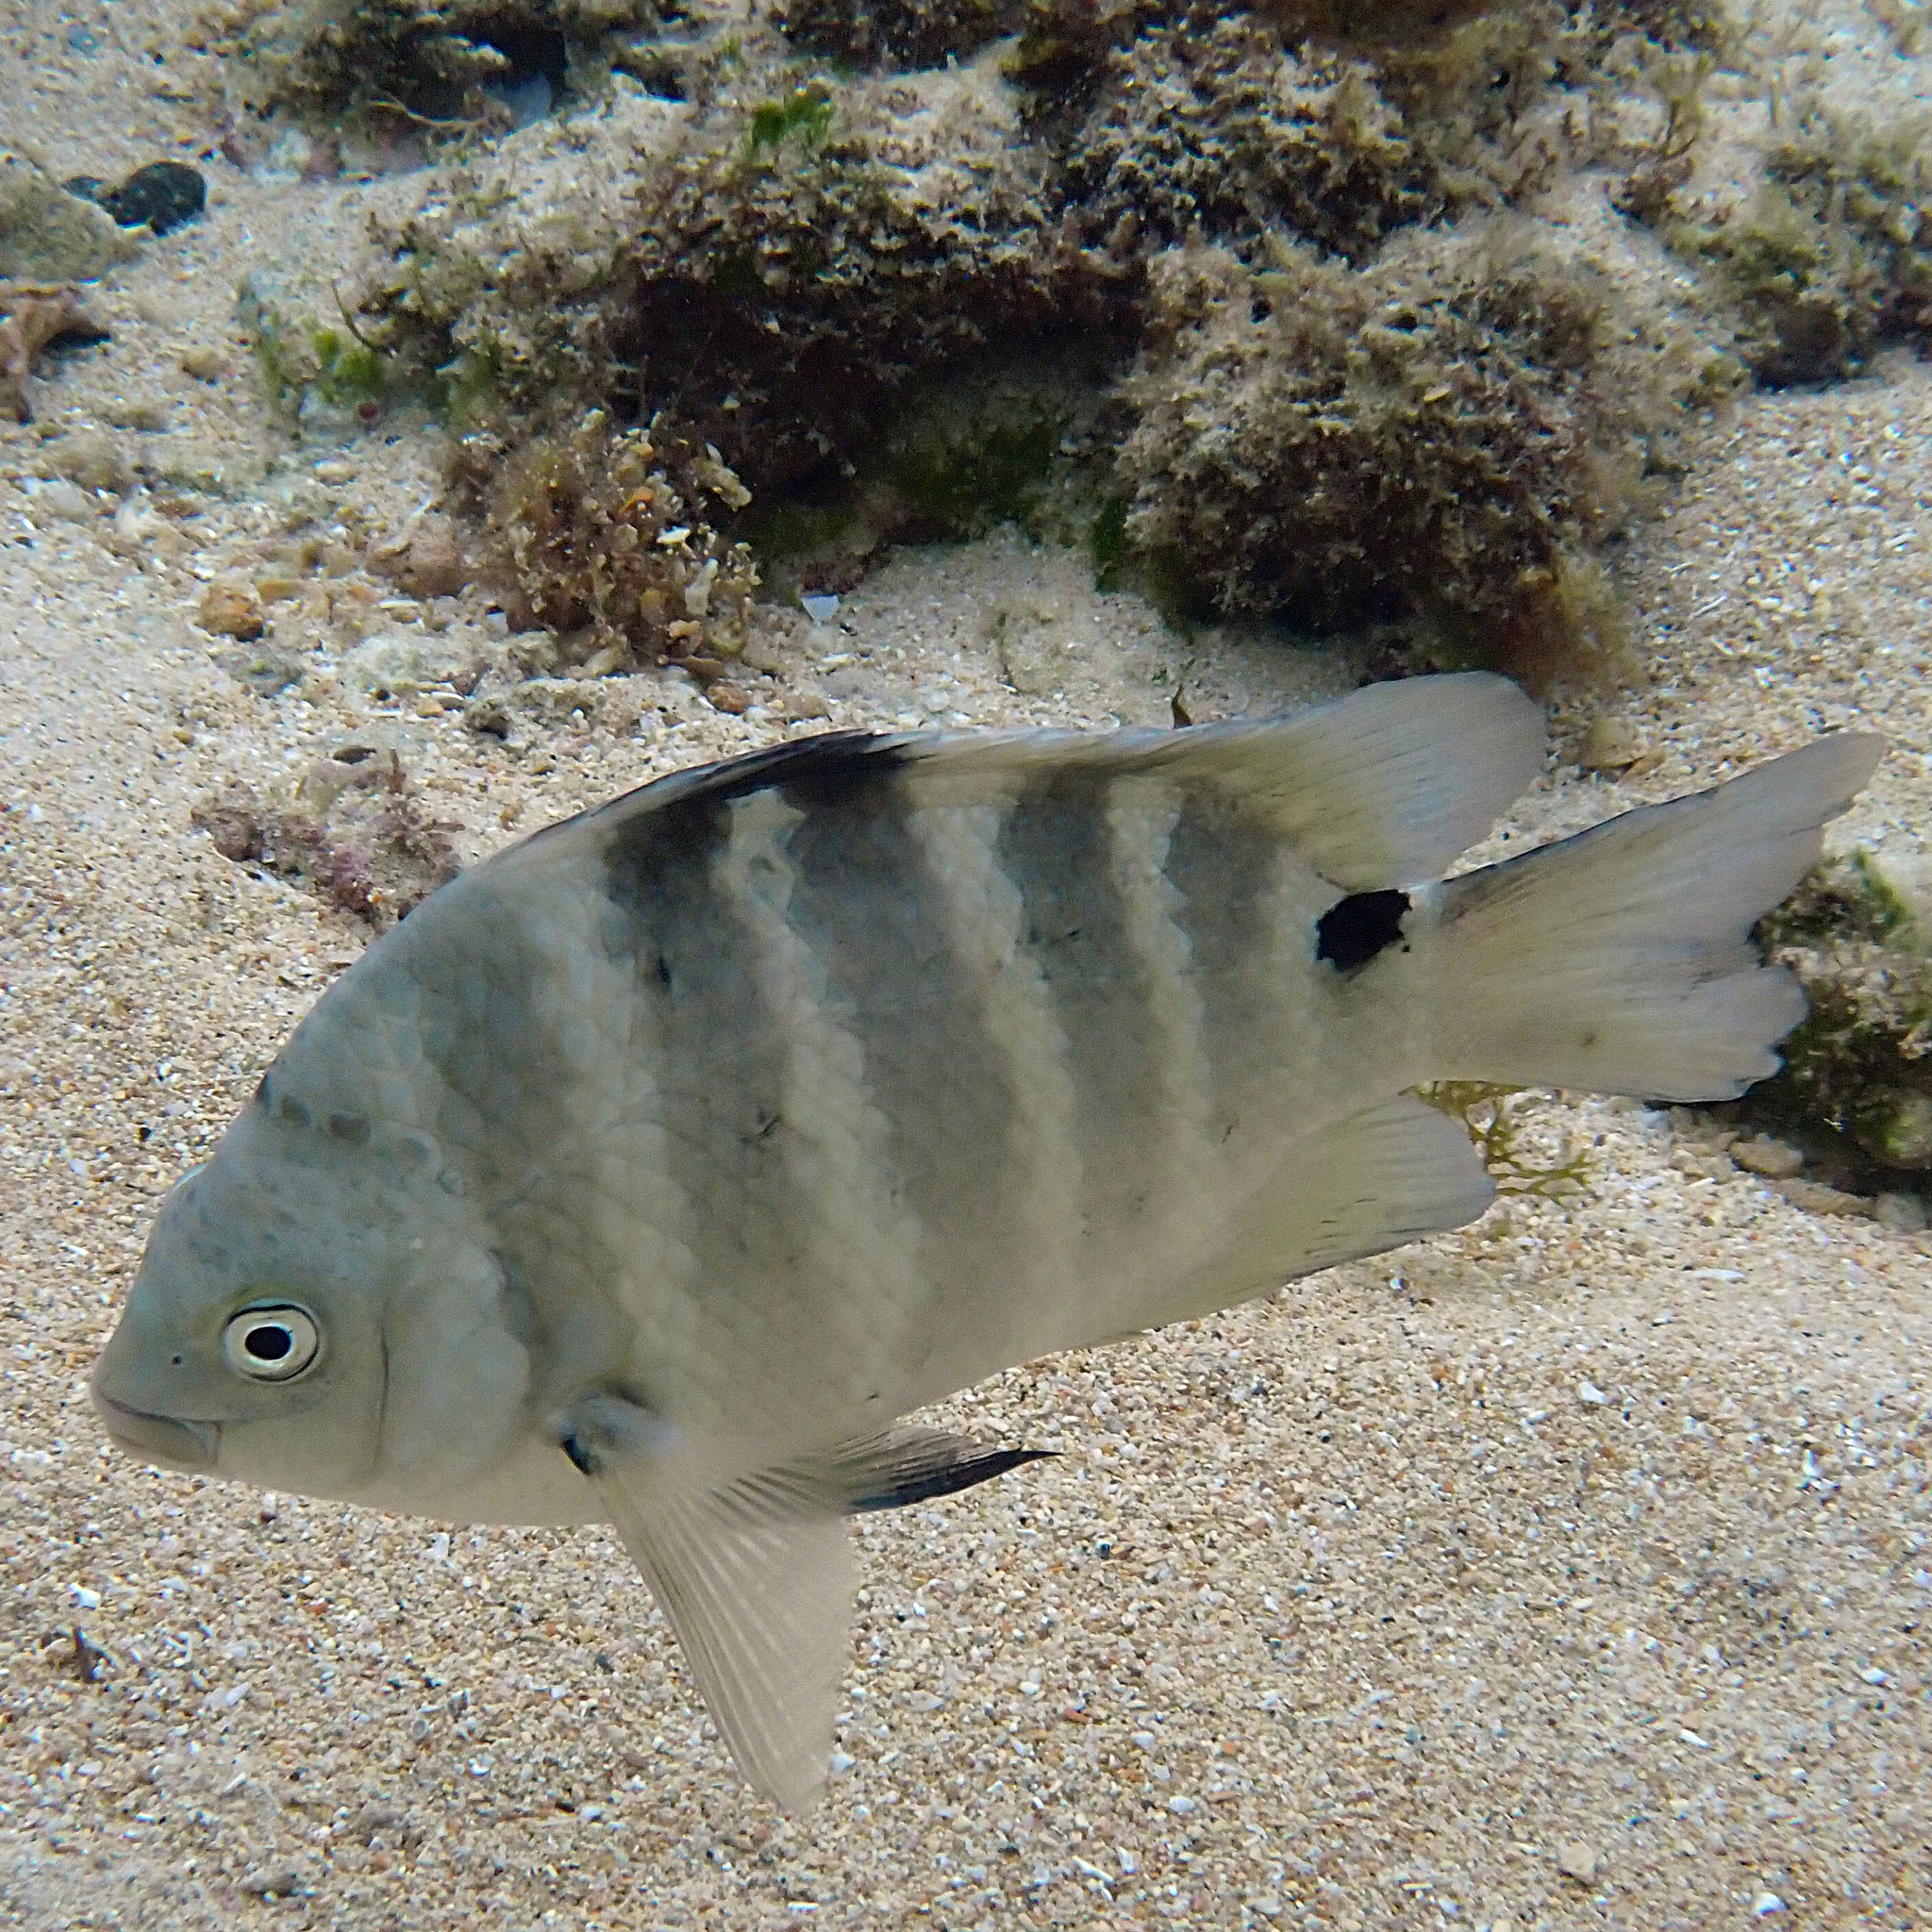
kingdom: Animalia
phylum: Chordata
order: Perciformes
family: Pomacentridae
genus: Abudefduf
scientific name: Abudefduf sordidus
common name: Blackspot sergeant
